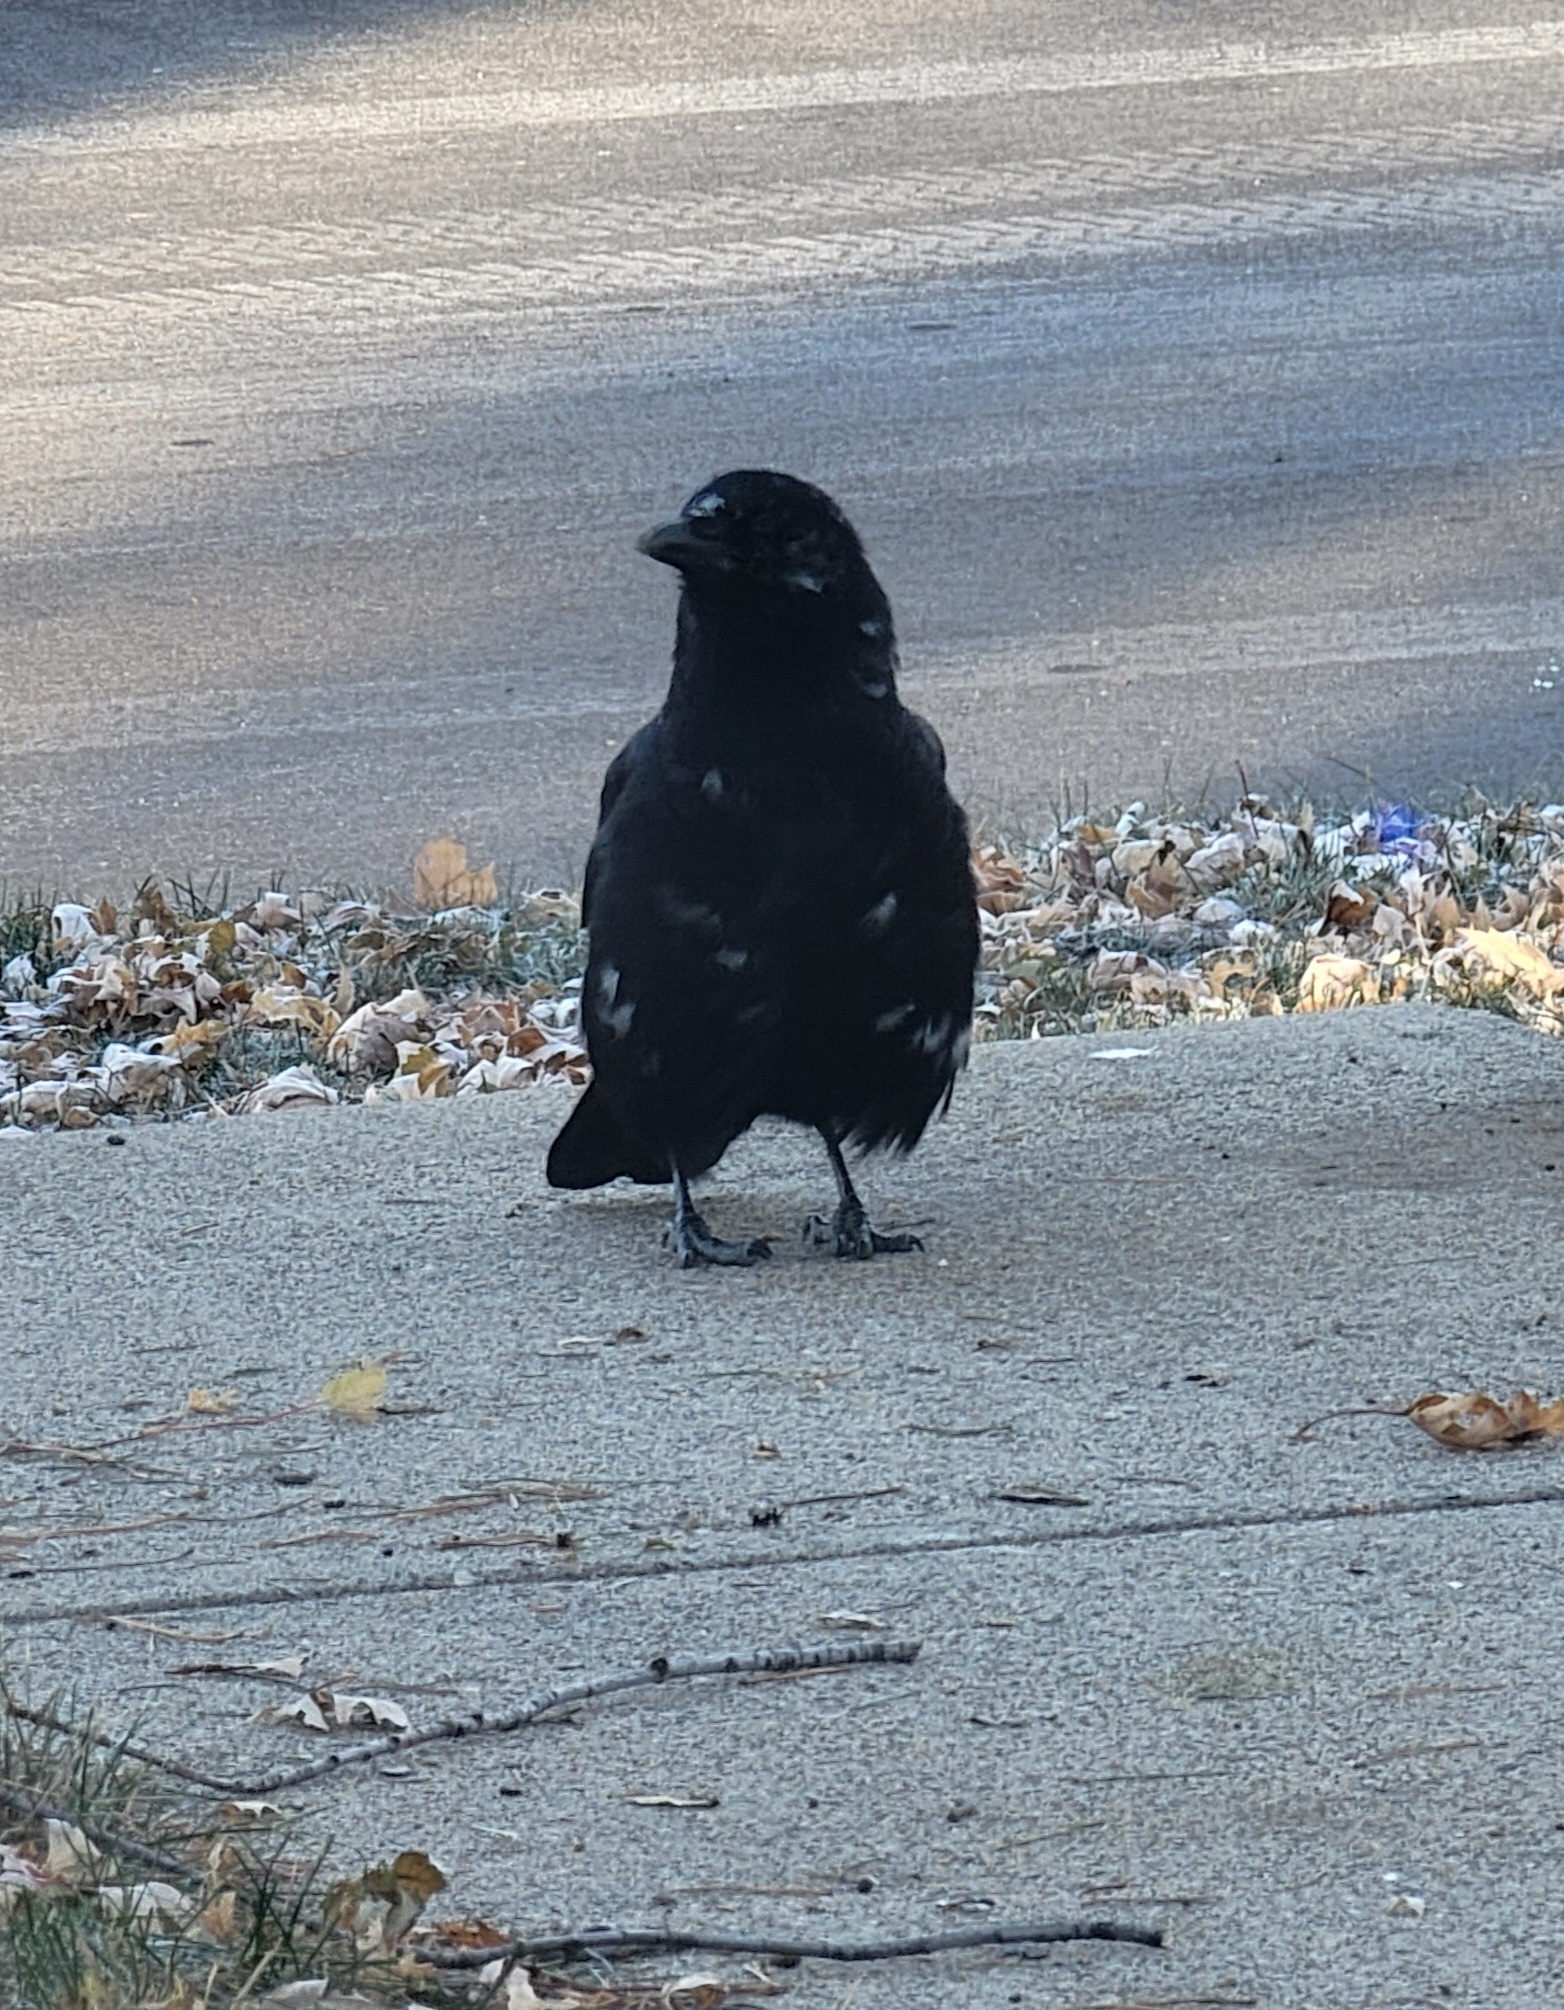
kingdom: Animalia
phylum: Chordata
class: Aves
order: Passeriformes
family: Corvidae
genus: Corvus
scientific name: Corvus brachyrhynchos
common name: American crow
